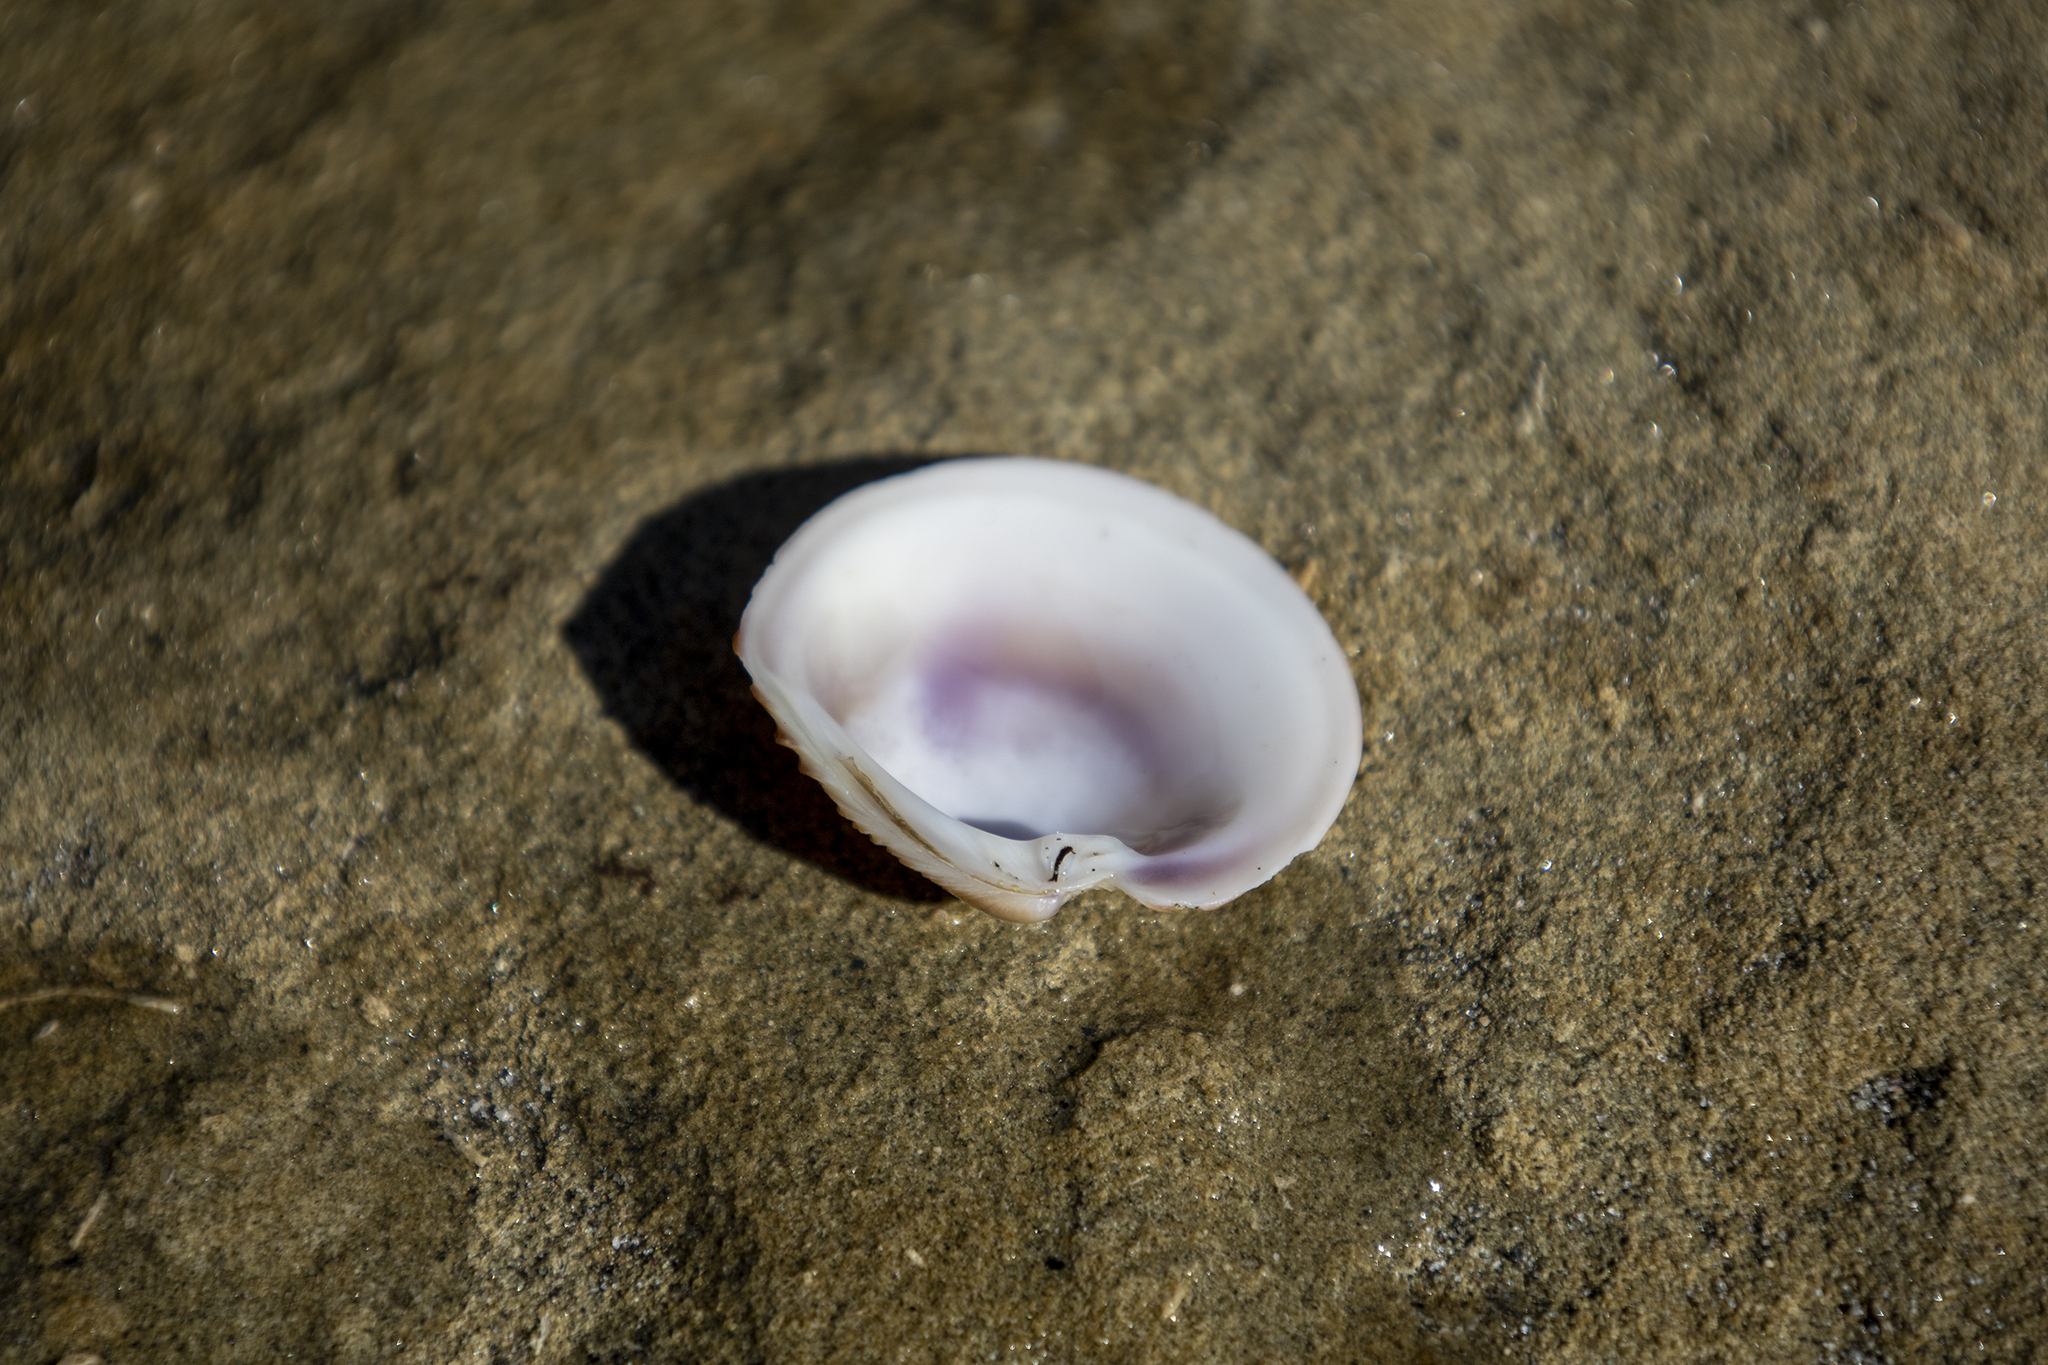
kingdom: Animalia
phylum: Mollusca
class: Bivalvia
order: Venerida
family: Veneridae
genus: Dosinia
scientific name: Dosinia anus
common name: Old-woman dosinia
